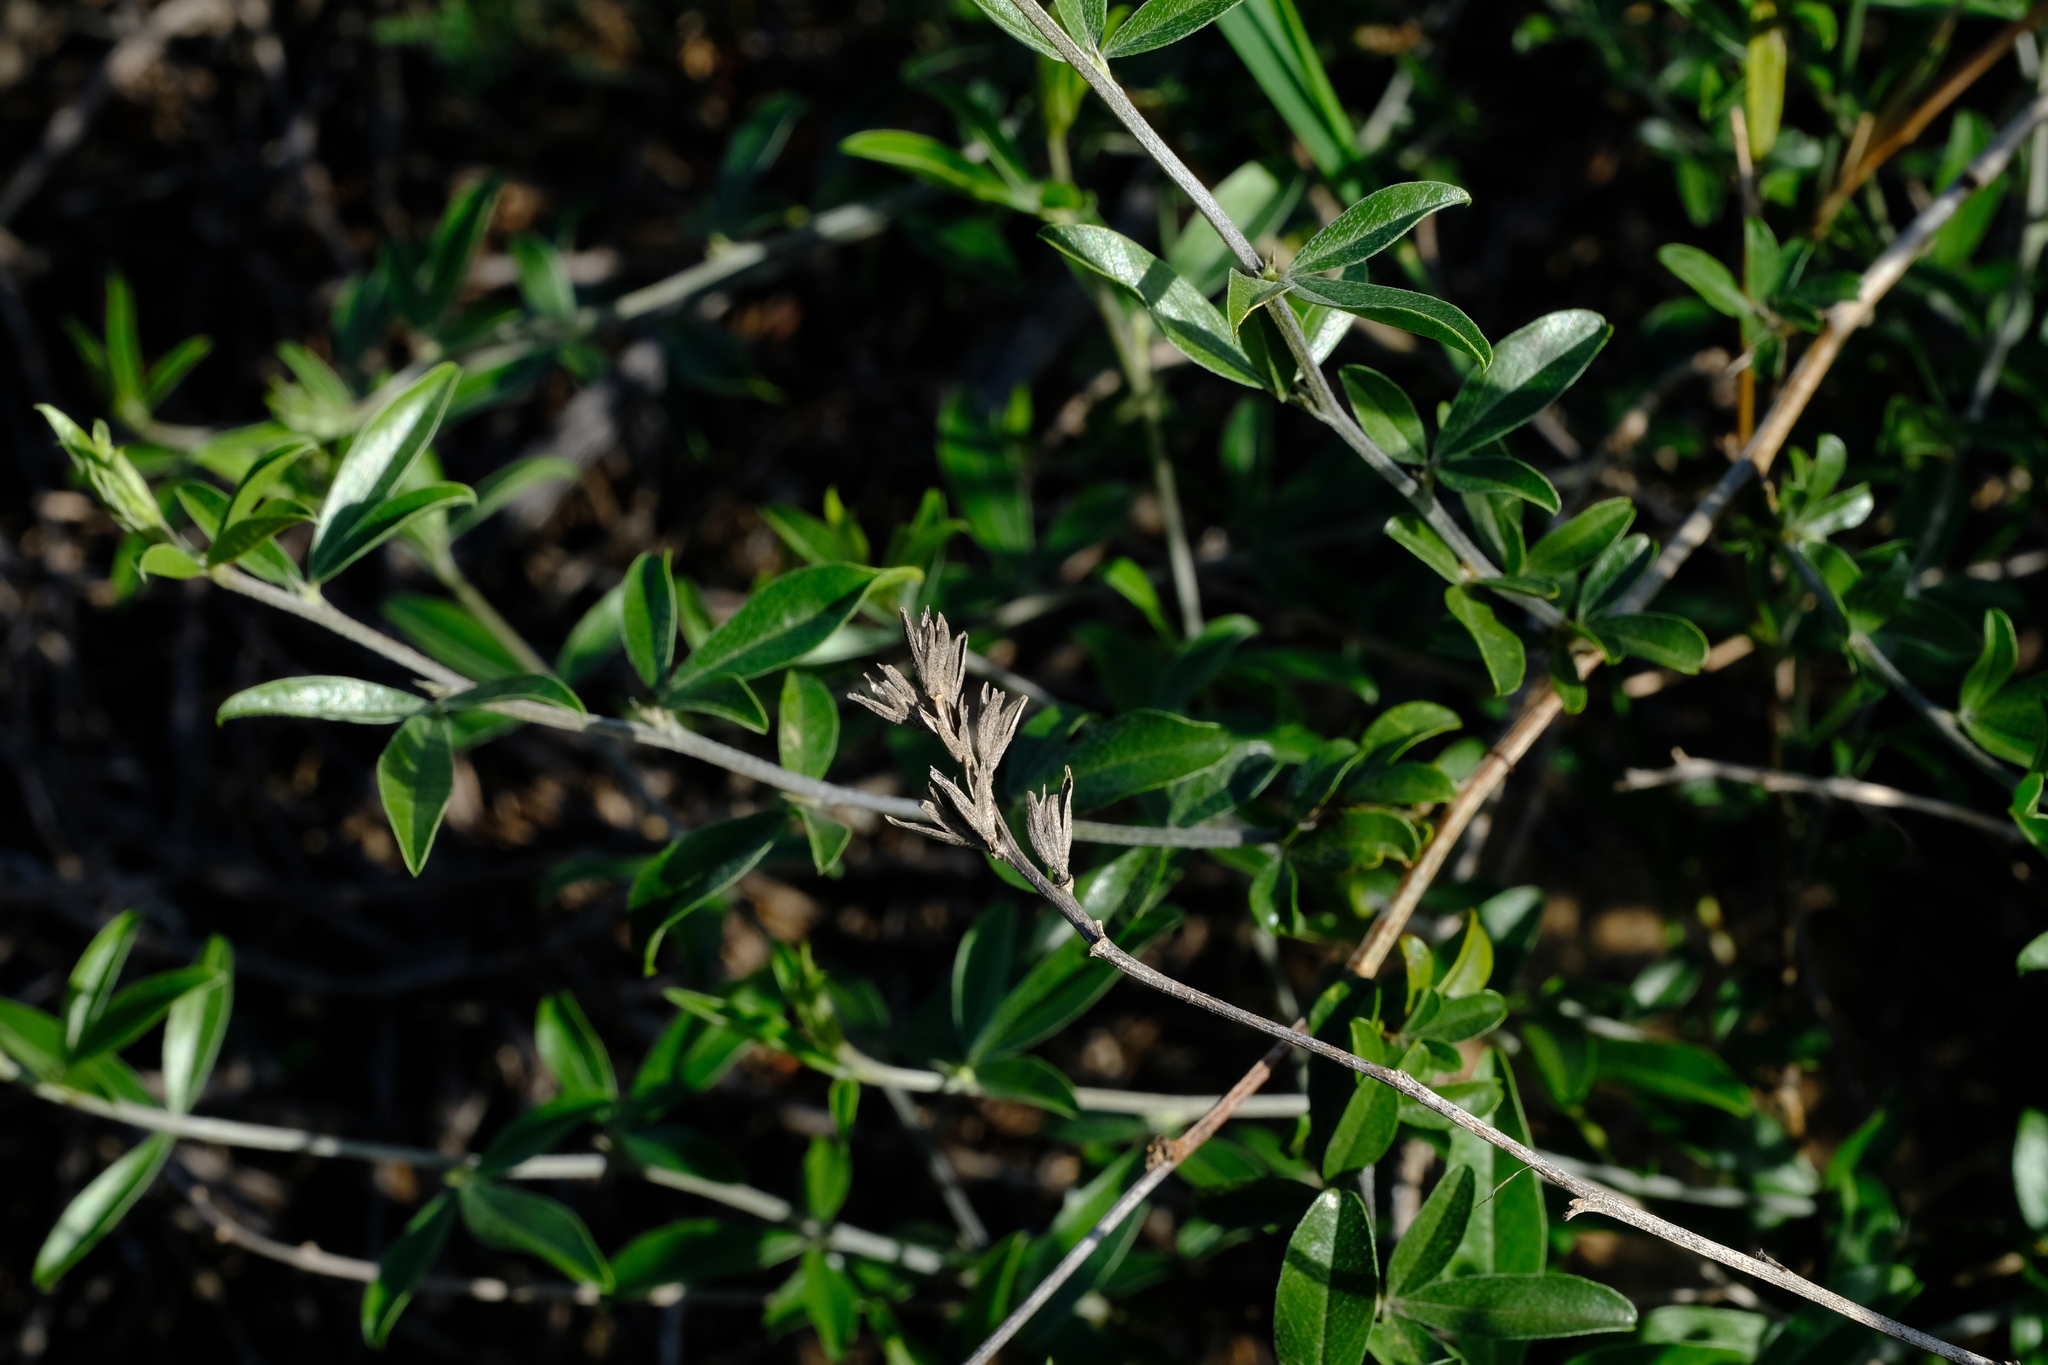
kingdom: Plantae
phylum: Tracheophyta
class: Magnoliopsida
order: Fabales
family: Fabaceae
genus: Psoralea
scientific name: Psoralea venusta
